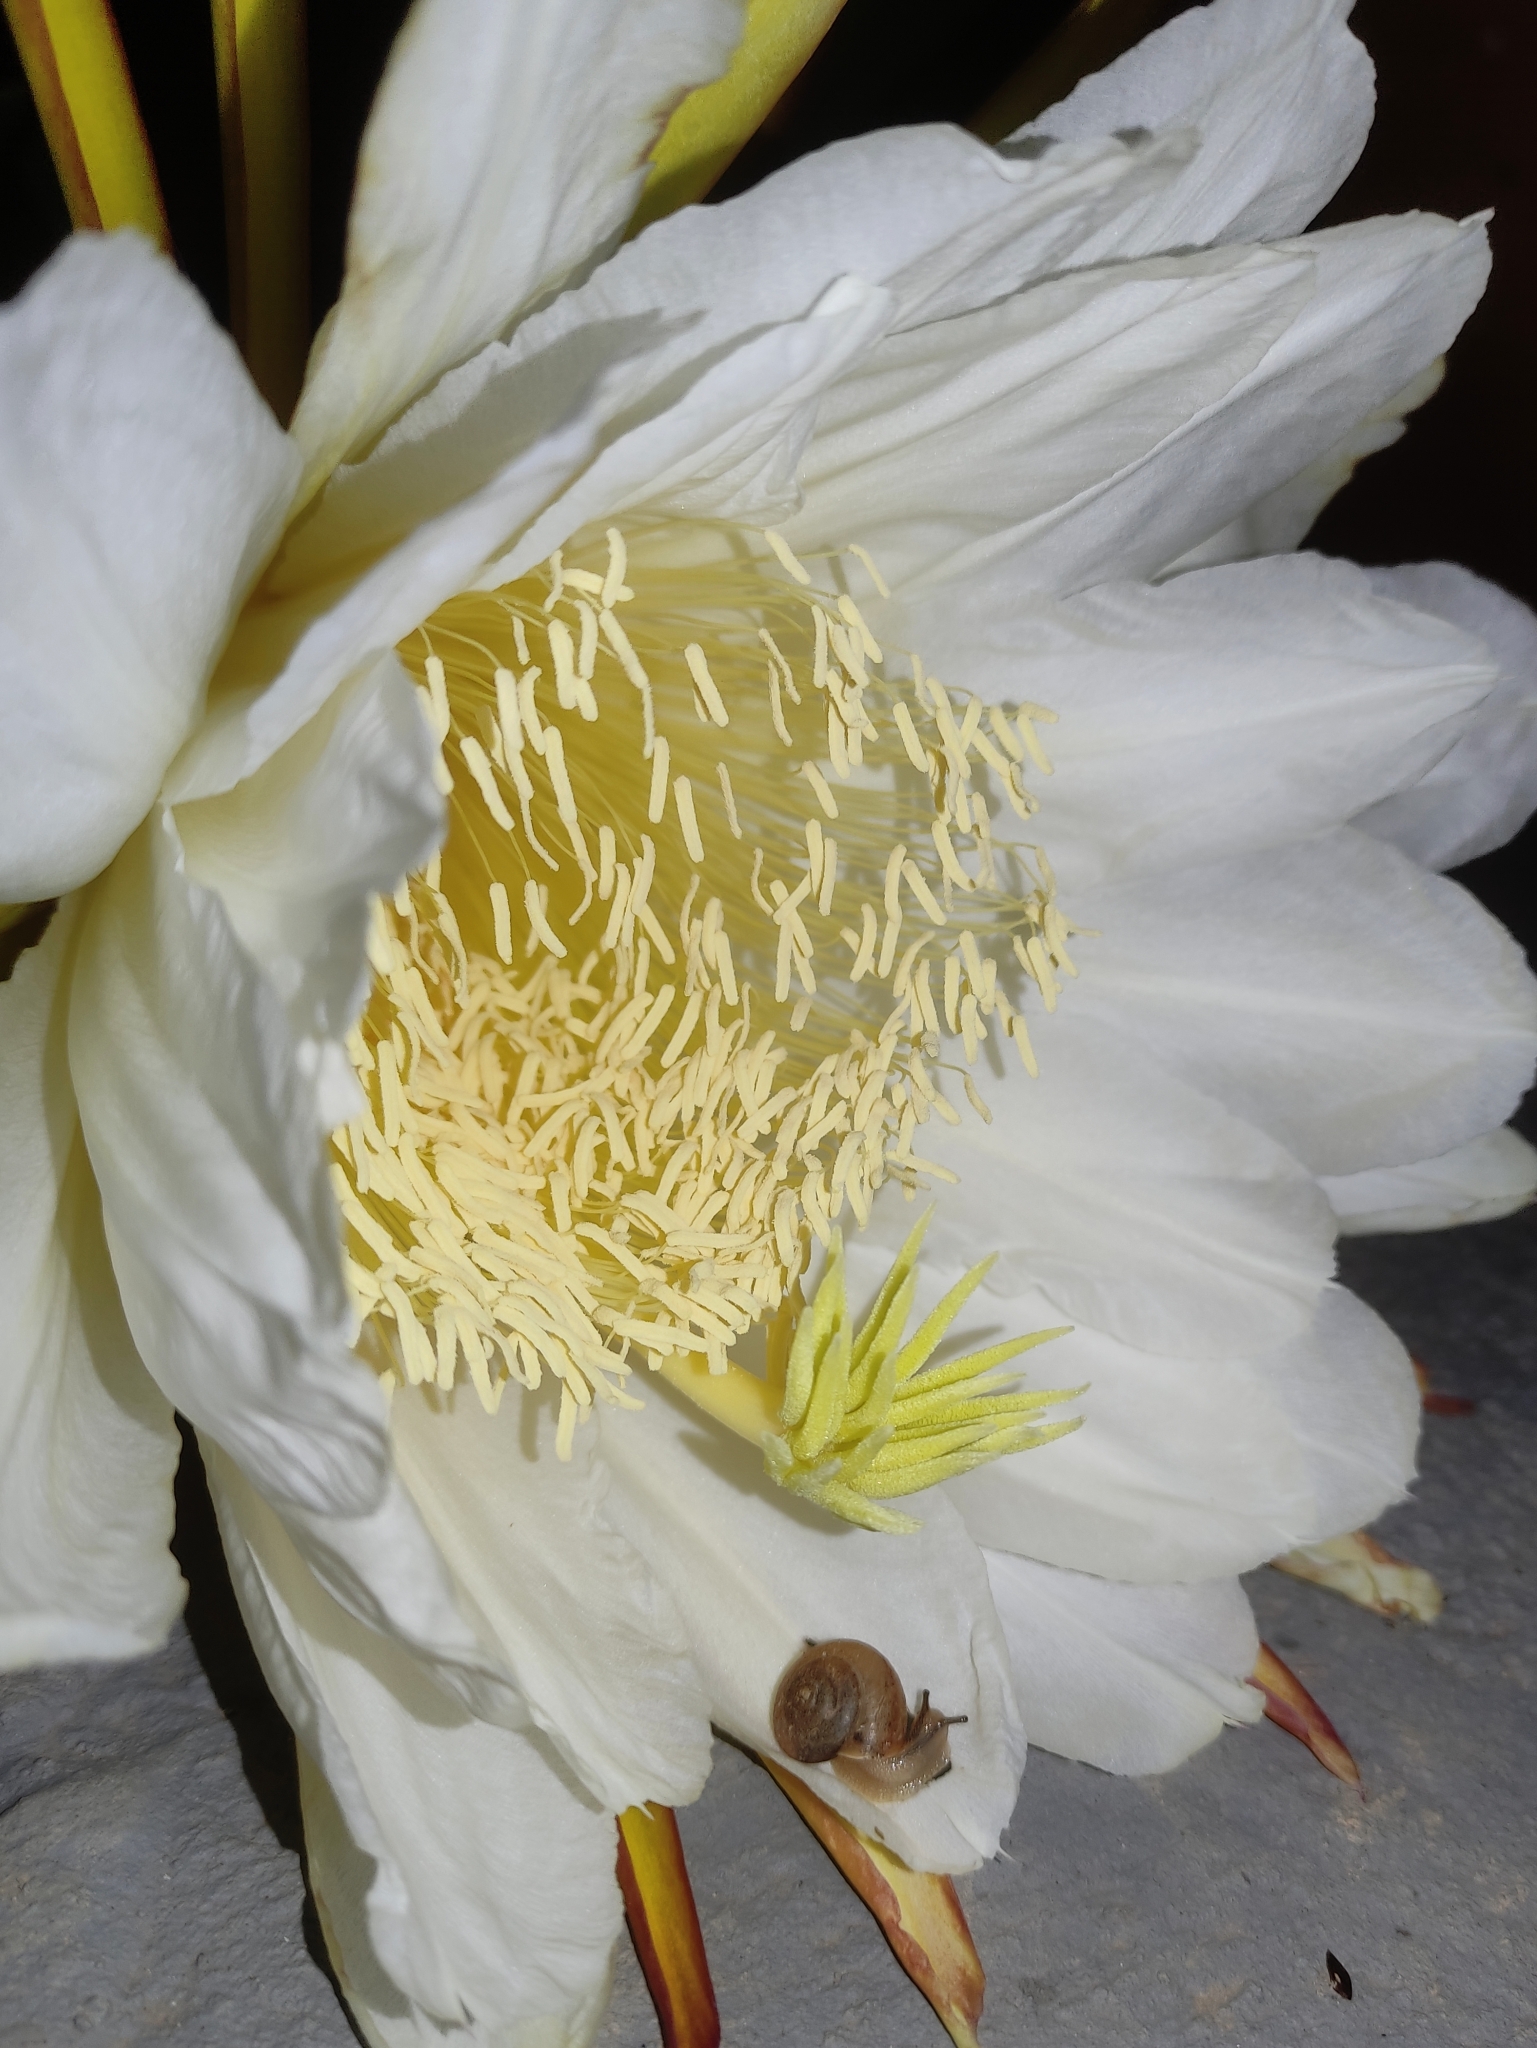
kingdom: Plantae
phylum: Tracheophyta
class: Magnoliopsida
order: Caryophyllales
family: Cactaceae
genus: Selenicereus
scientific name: Selenicereus undatus
